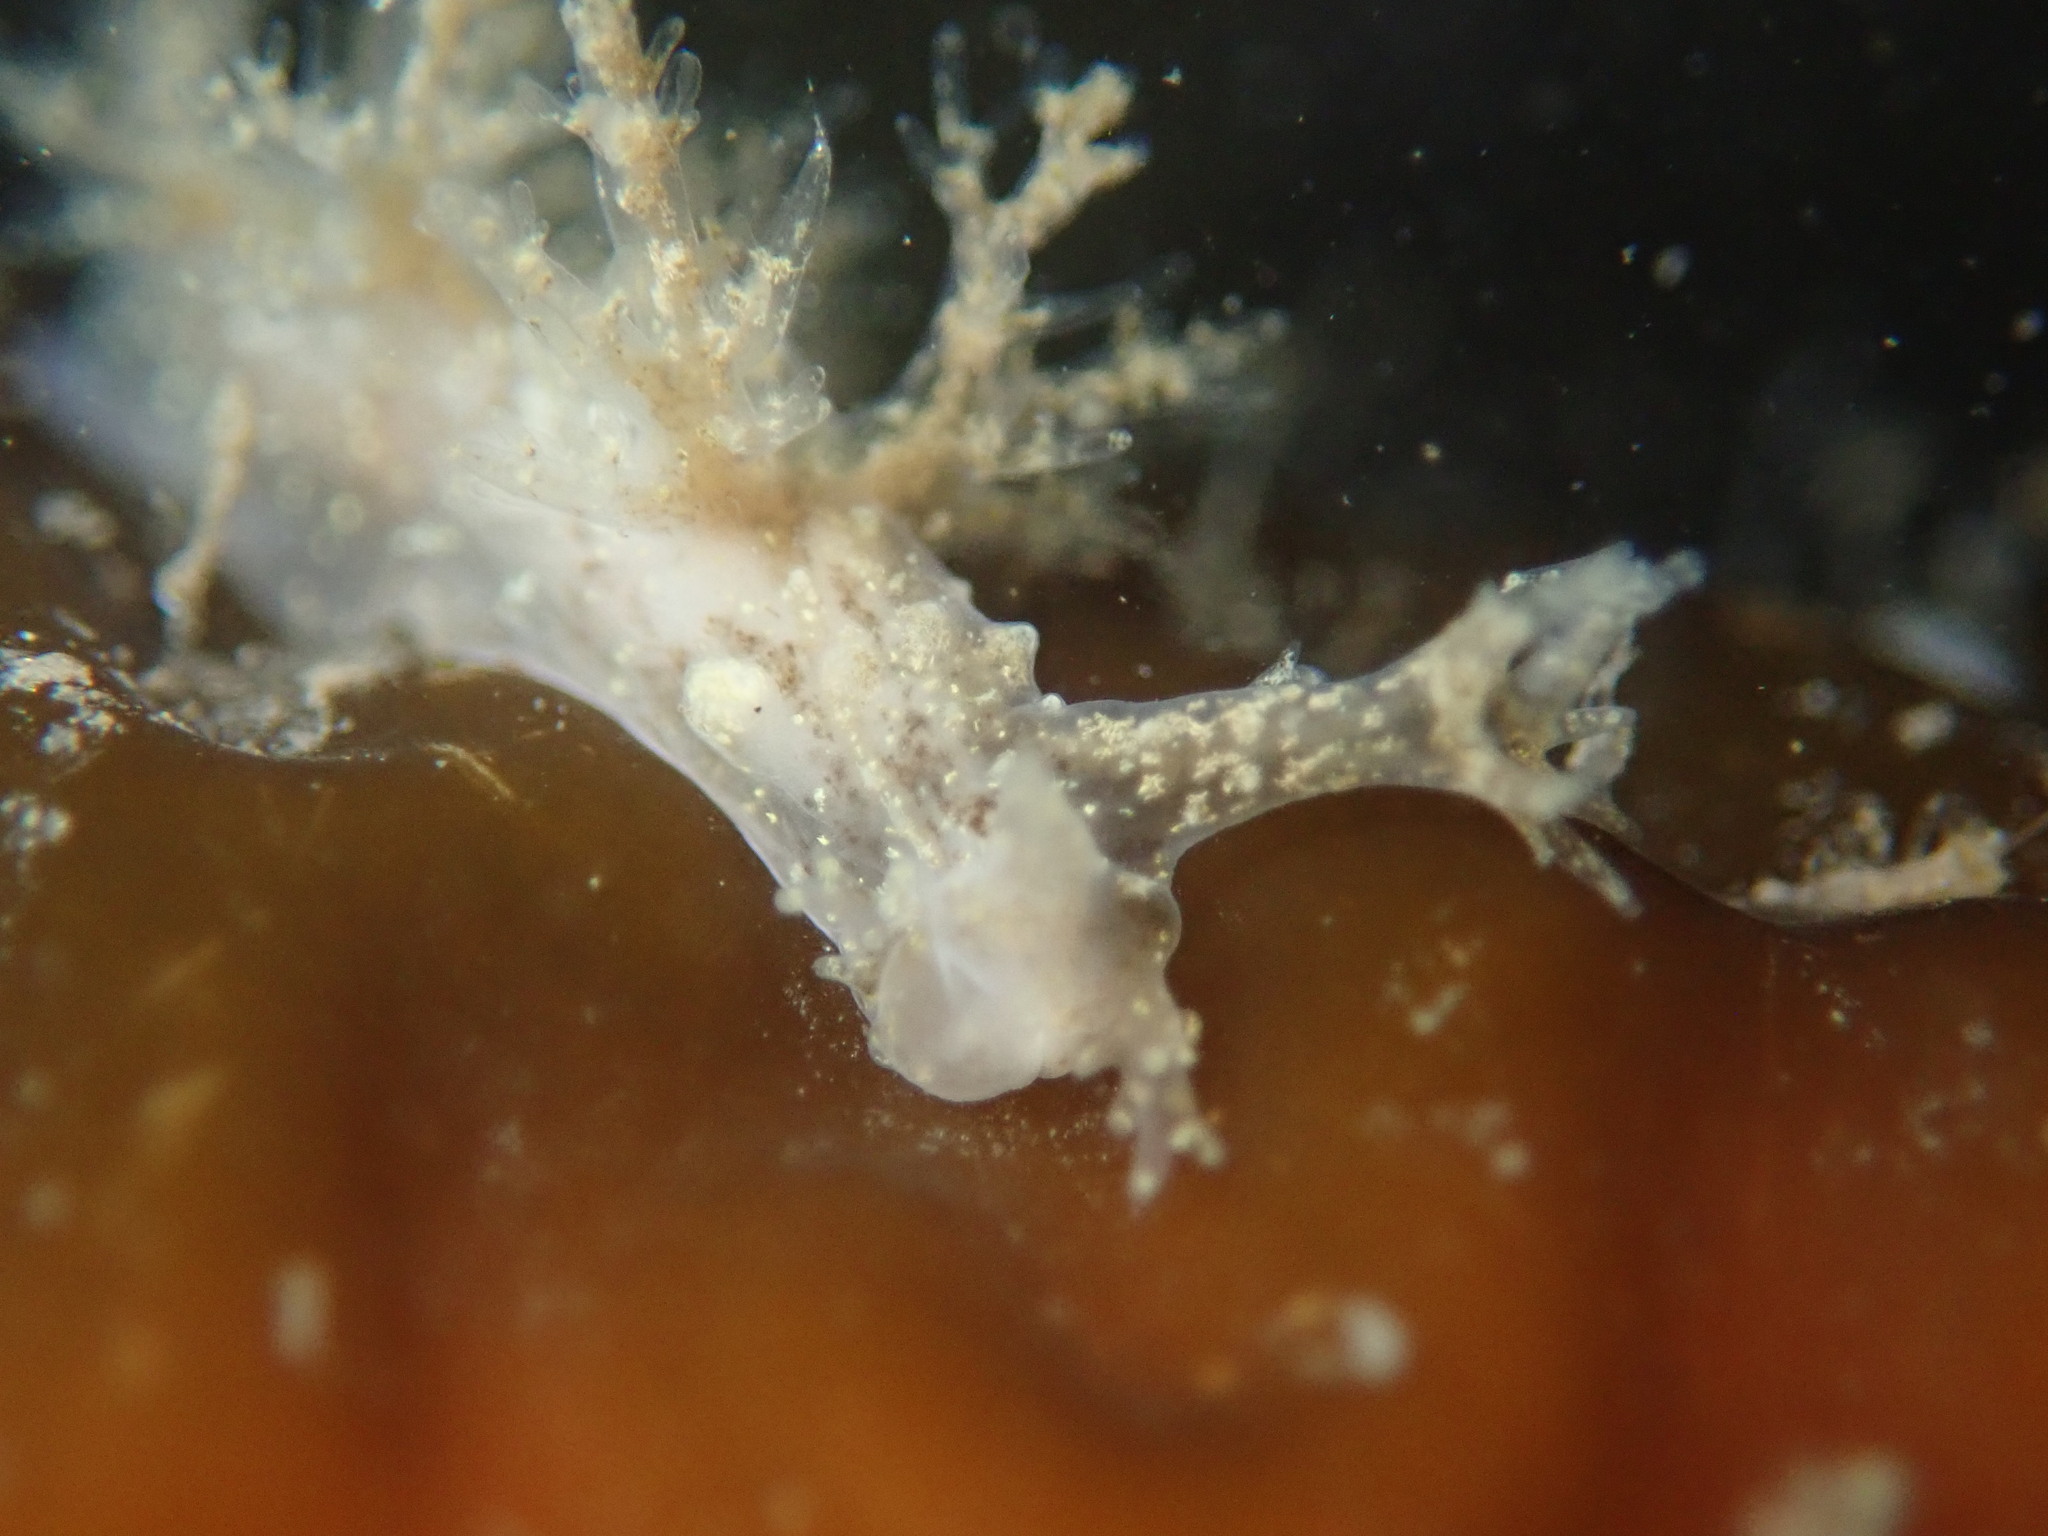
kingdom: Animalia
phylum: Mollusca
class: Gastropoda
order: Nudibranchia
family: Dendronotidae
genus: Dendronotus
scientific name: Dendronotus venustus
